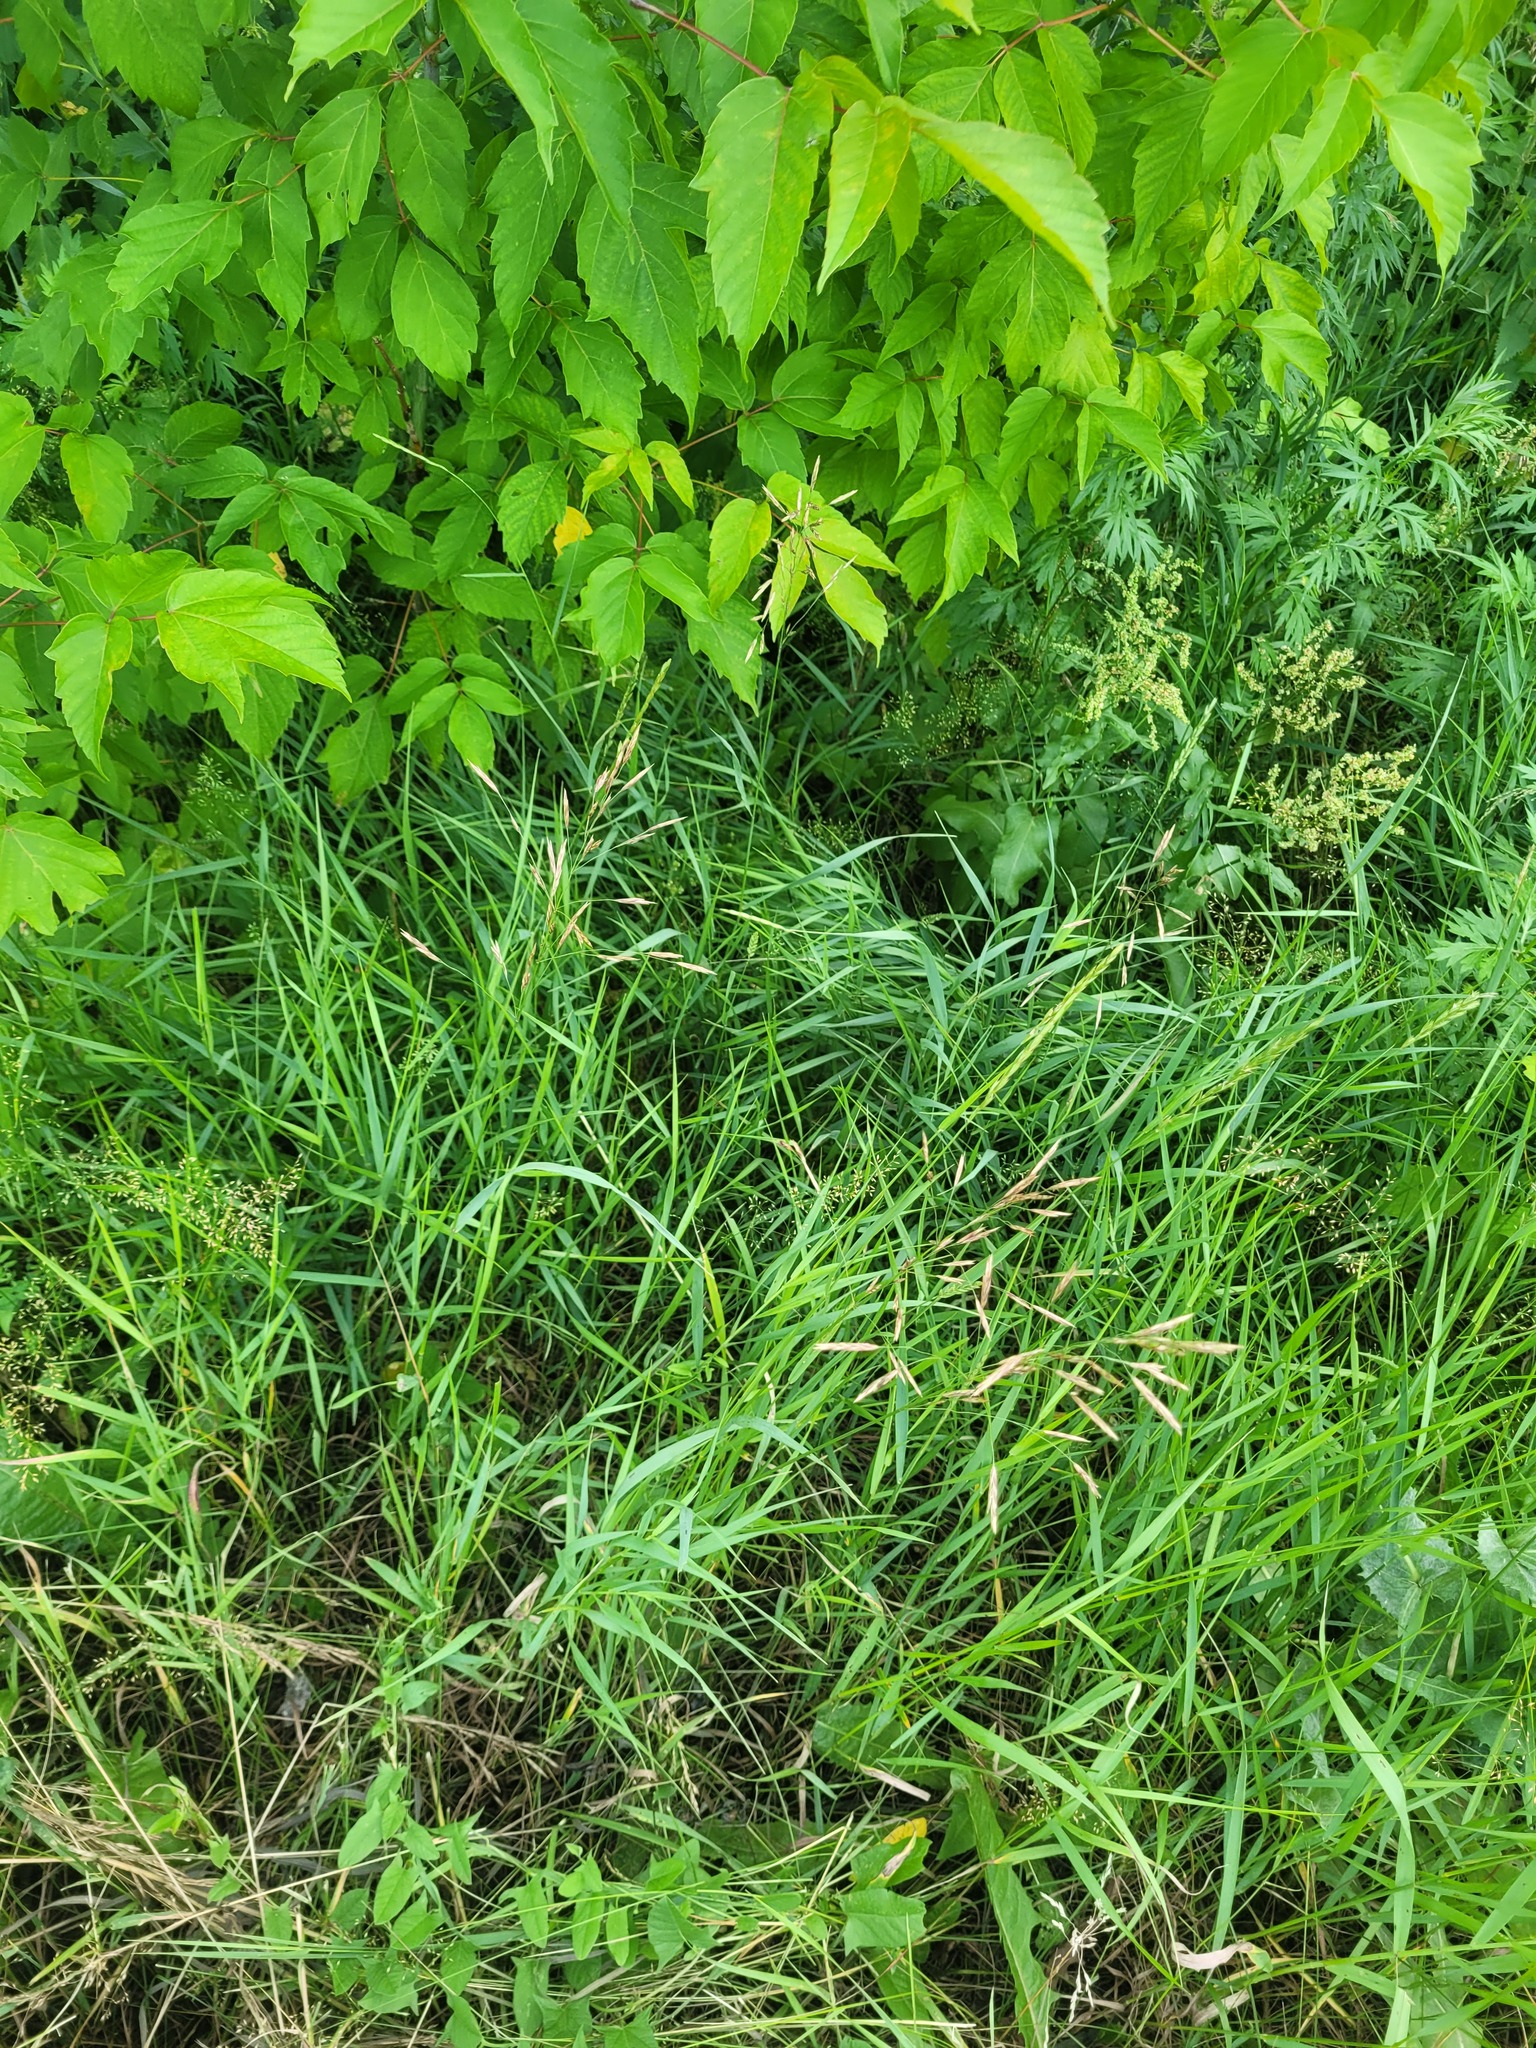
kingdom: Plantae
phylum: Tracheophyta
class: Liliopsida
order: Poales
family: Poaceae
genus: Bromus
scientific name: Bromus inermis
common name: Smooth brome
